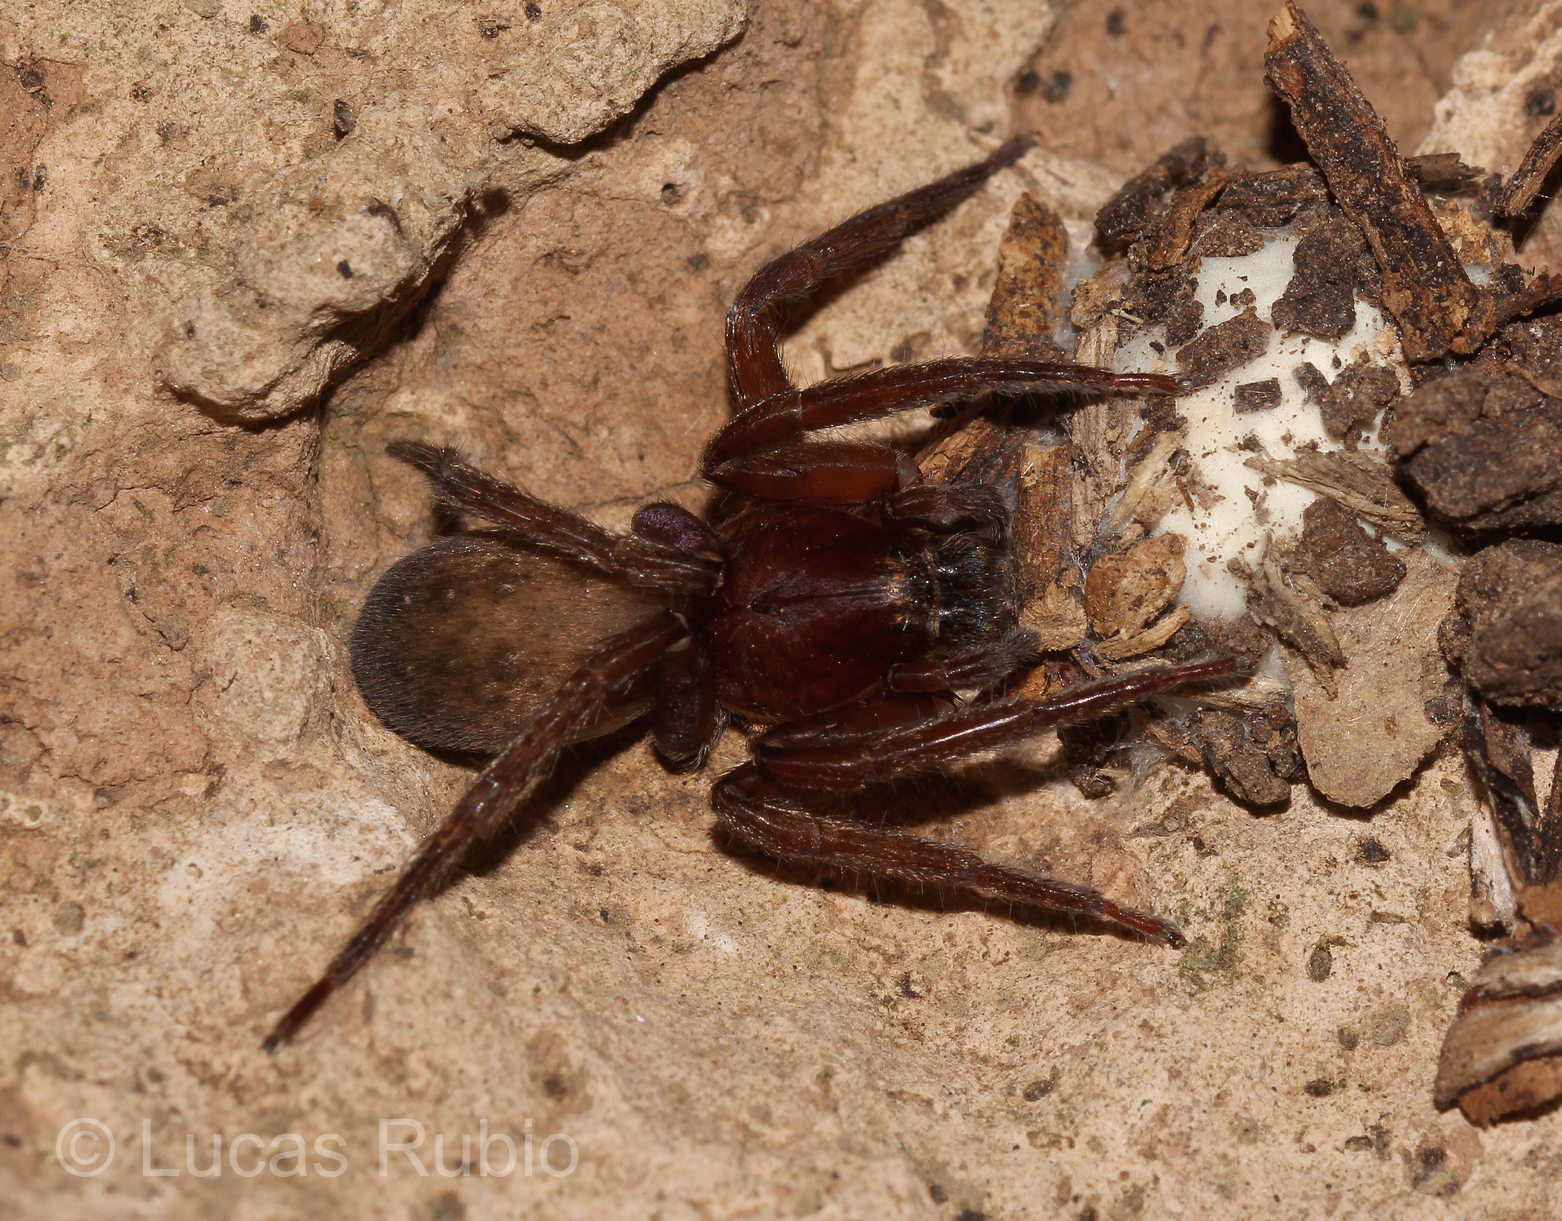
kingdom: Animalia
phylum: Arthropoda
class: Arachnida
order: Araneae
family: Ctenidae
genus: Asthenoctenus
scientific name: Asthenoctenus borellii
